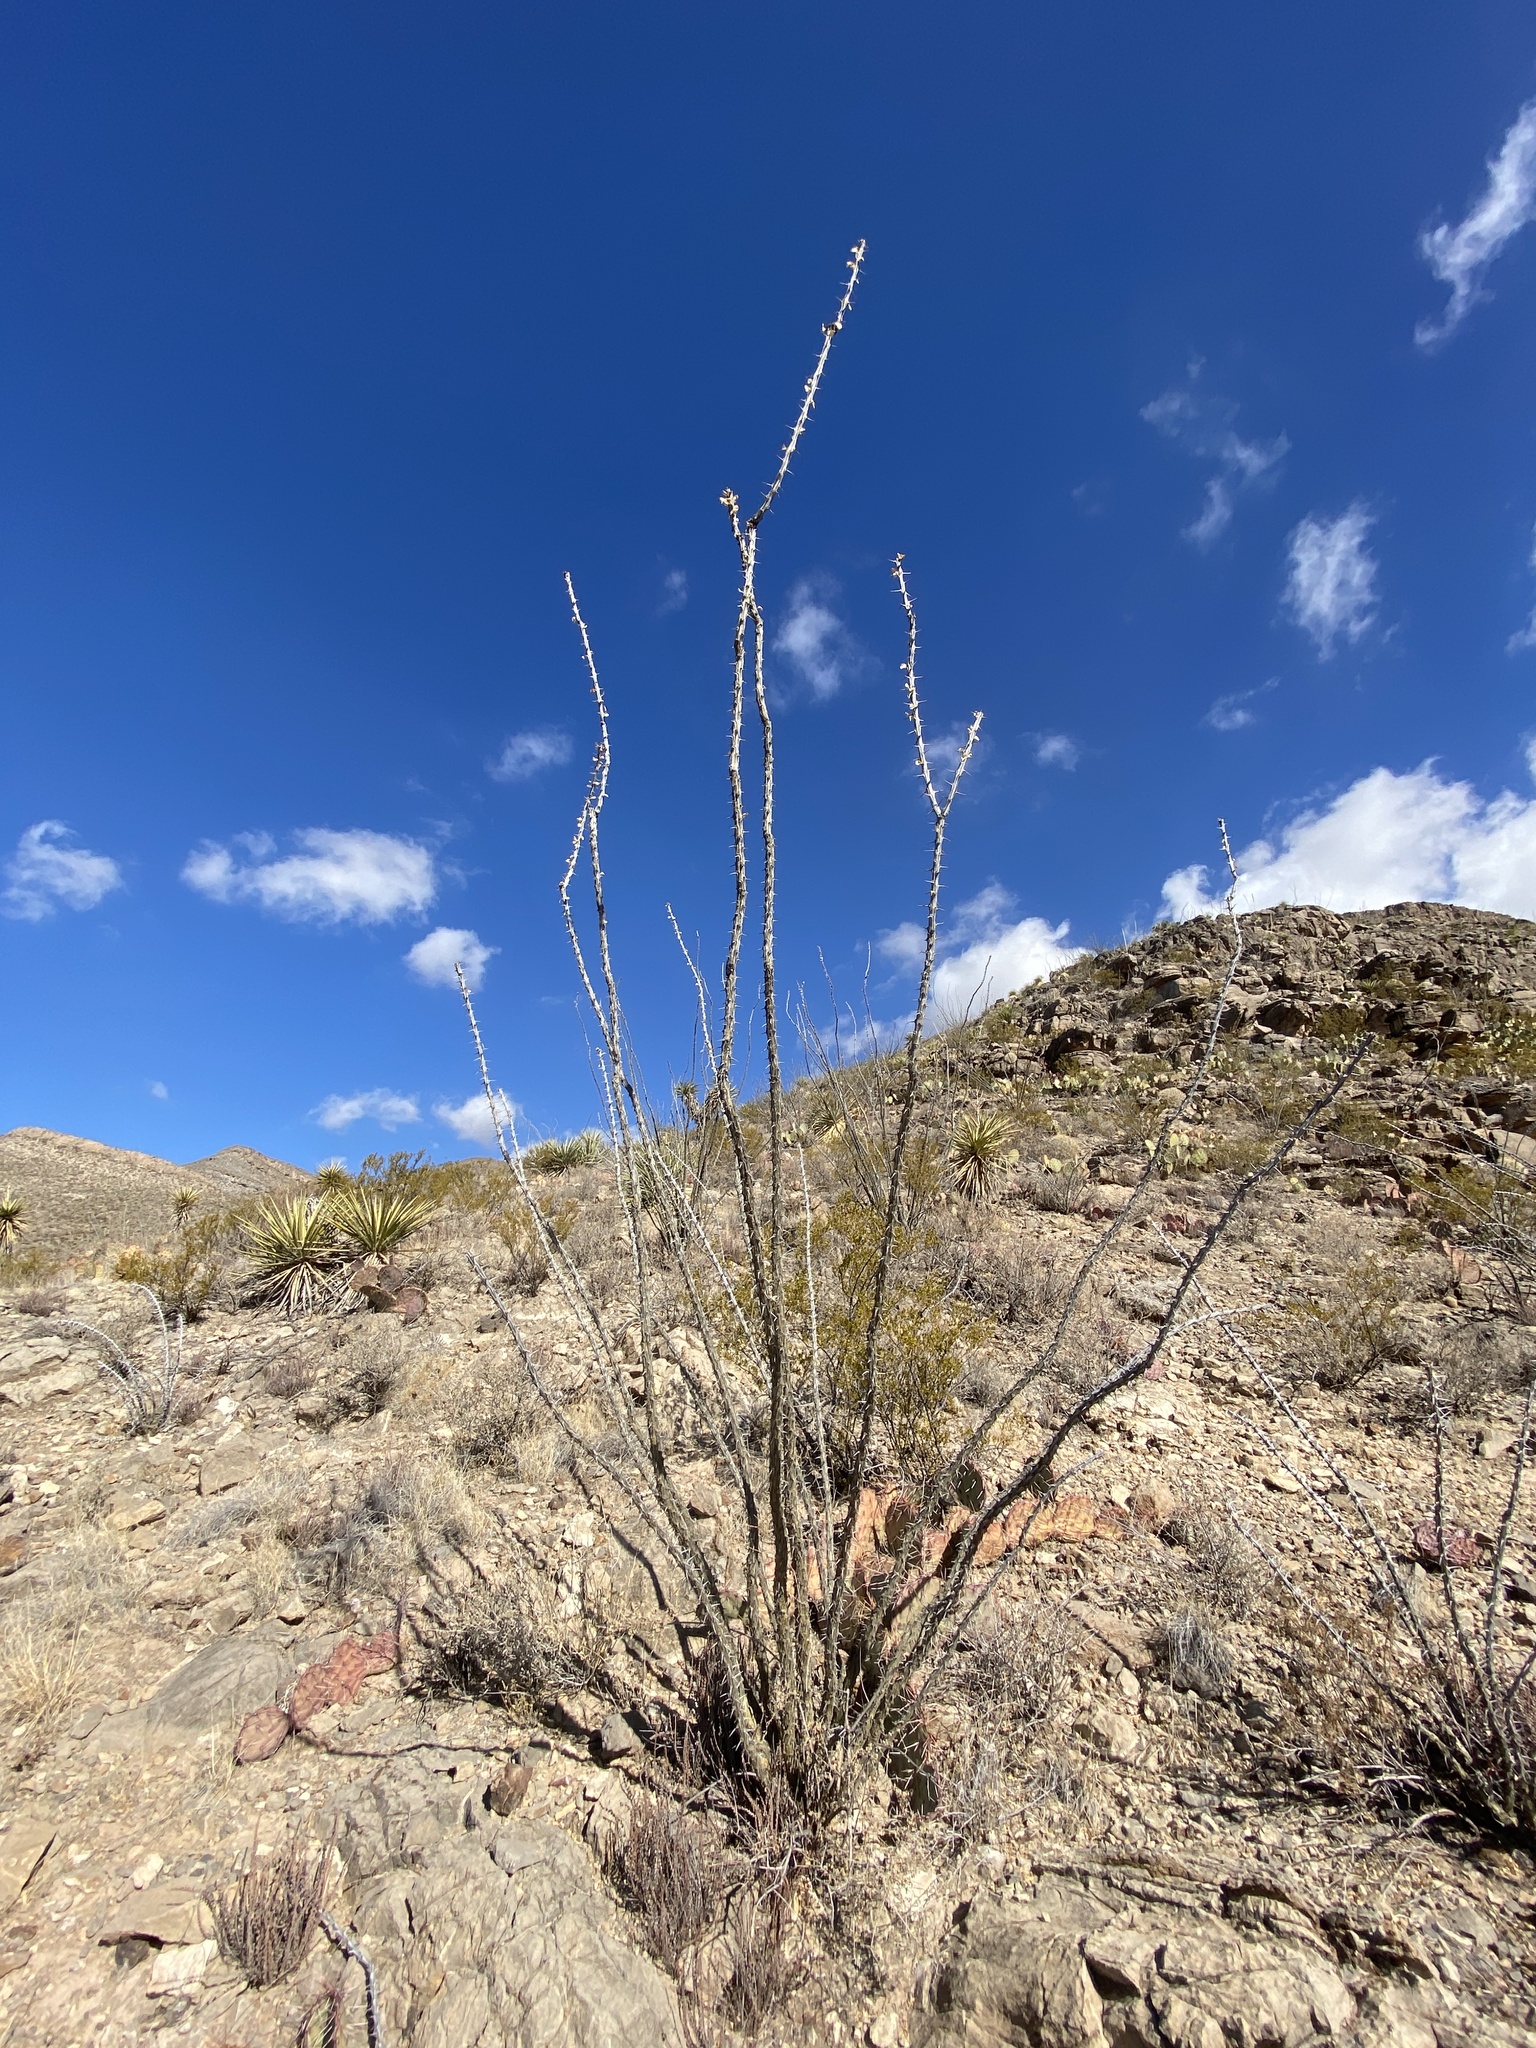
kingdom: Plantae
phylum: Tracheophyta
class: Magnoliopsida
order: Ericales
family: Fouquieriaceae
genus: Fouquieria
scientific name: Fouquieria splendens
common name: Vine-cactus
